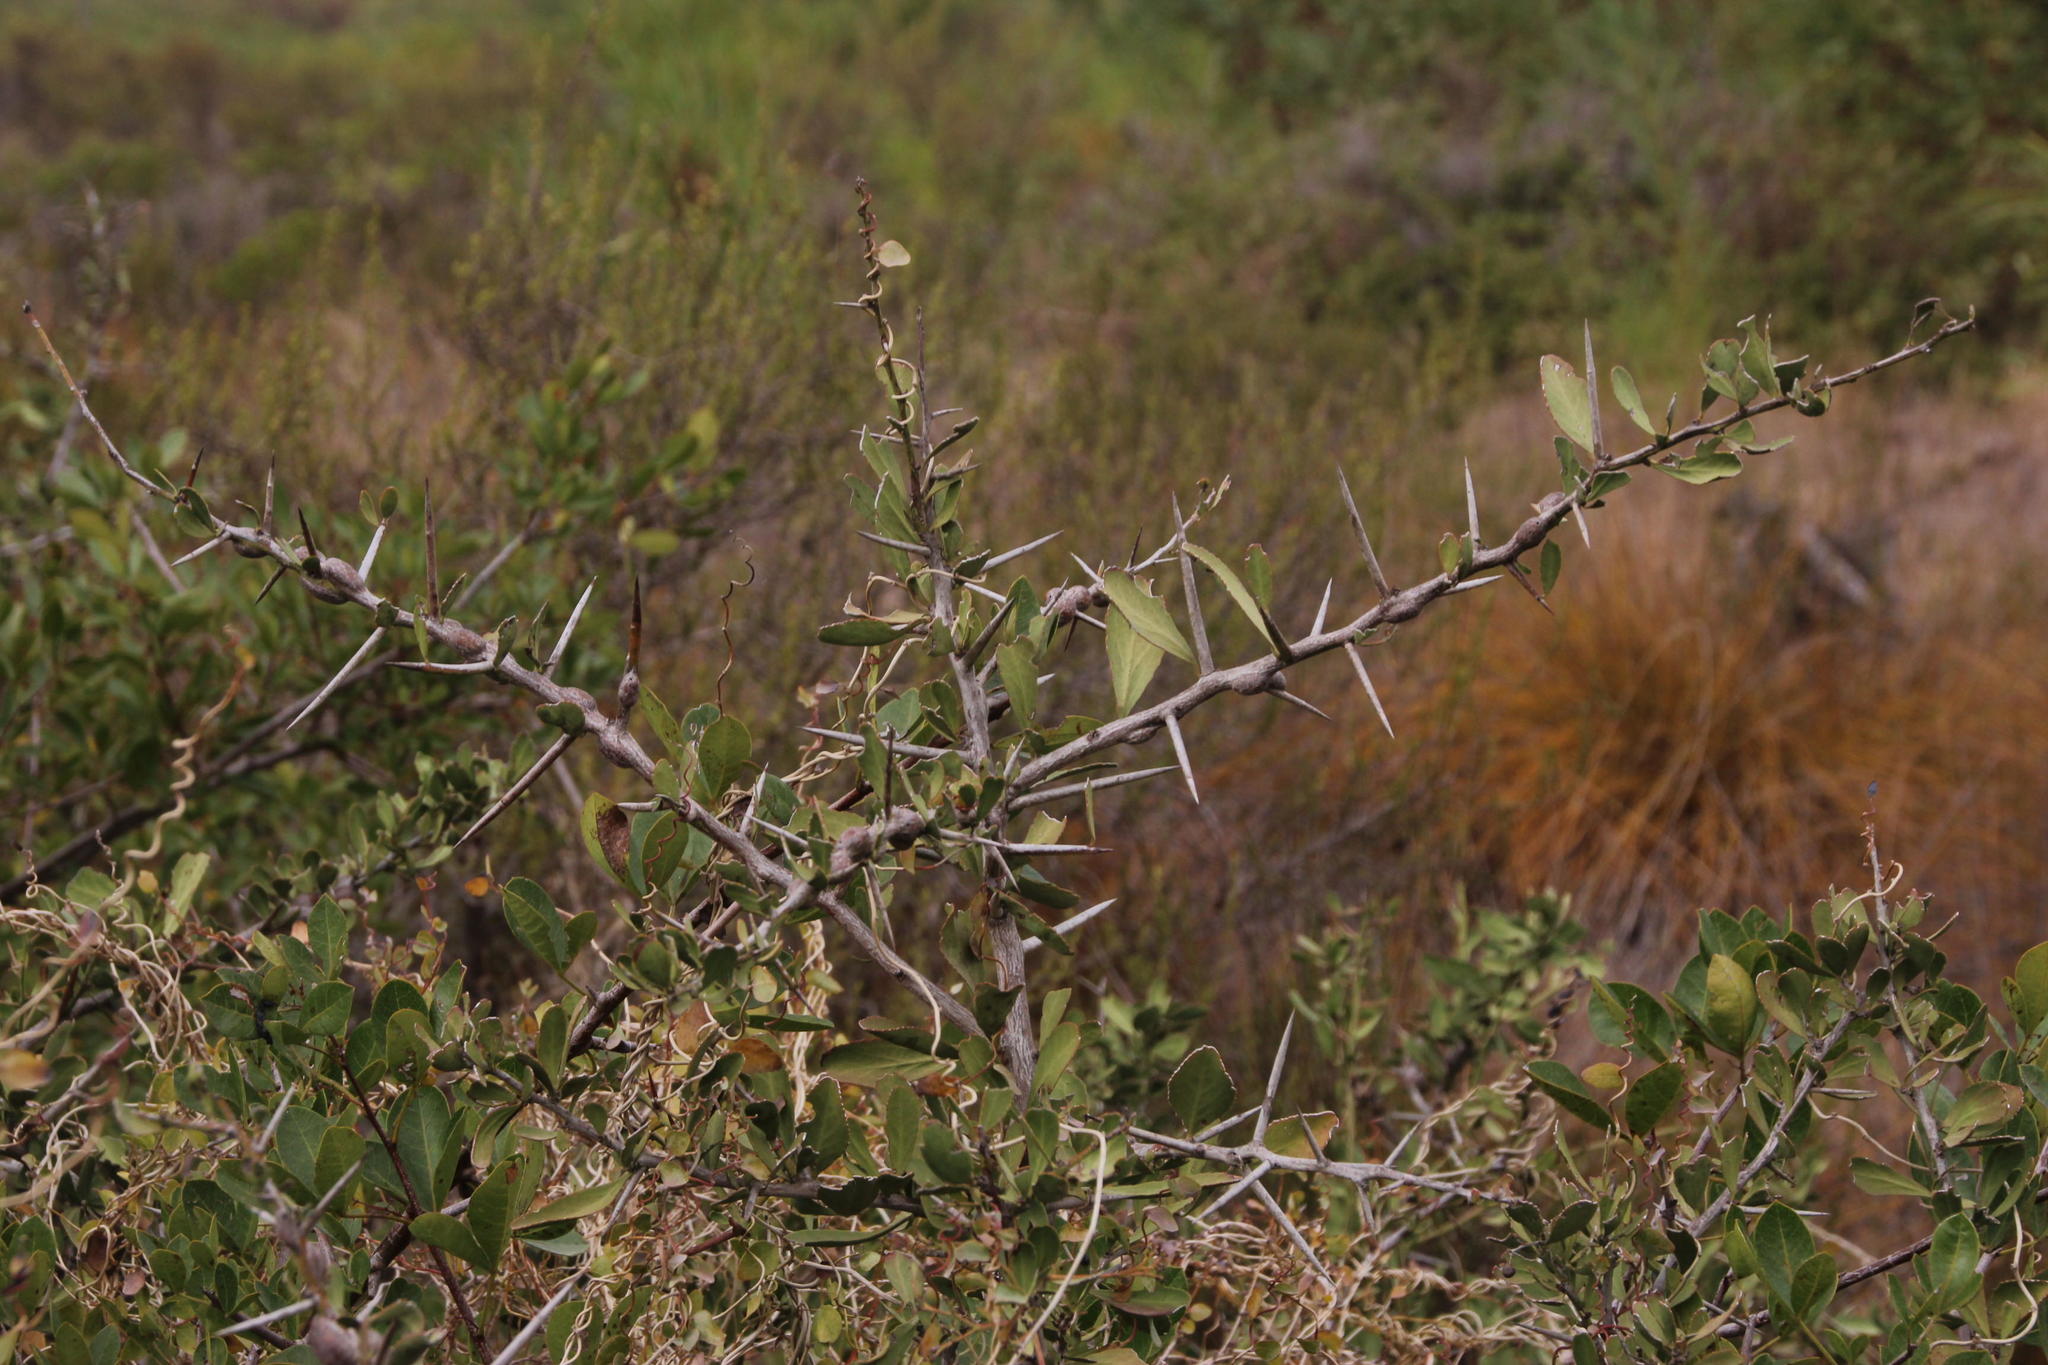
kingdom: Plantae
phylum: Tracheophyta
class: Magnoliopsida
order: Celastrales
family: Celastraceae
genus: Gymnosporia
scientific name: Gymnosporia buxifolia
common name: Common spike-thorn
